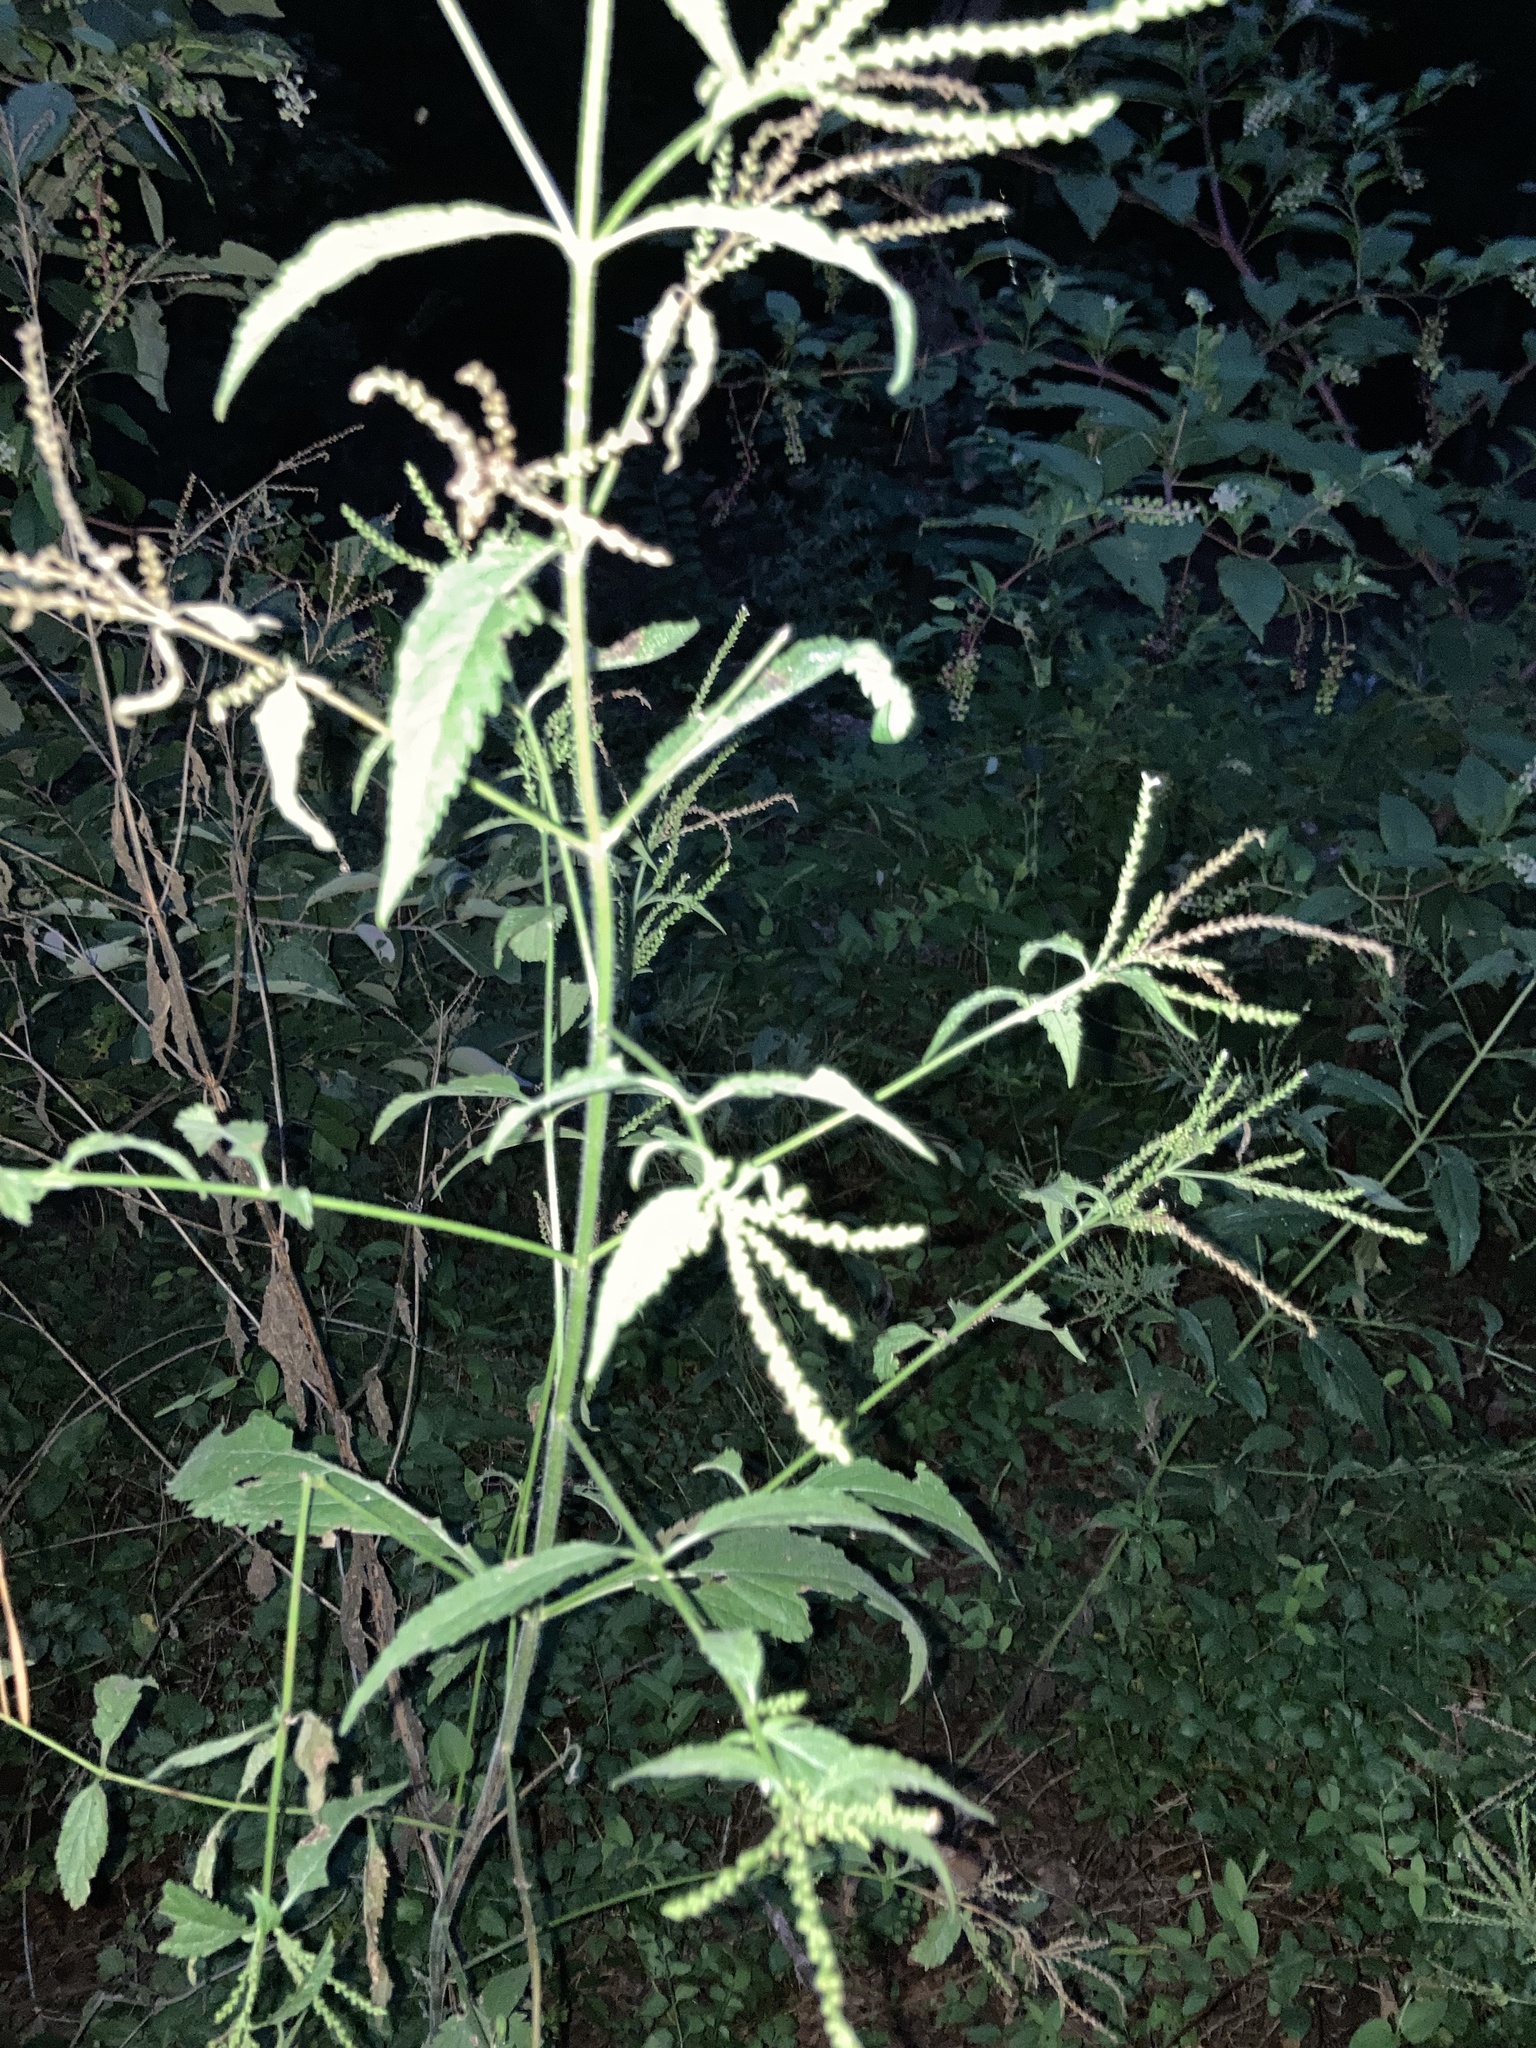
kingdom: Plantae
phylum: Tracheophyta
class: Magnoliopsida
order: Lamiales
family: Verbenaceae
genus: Verbena
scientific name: Verbena urticifolia
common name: Nettle-leaved vervain
